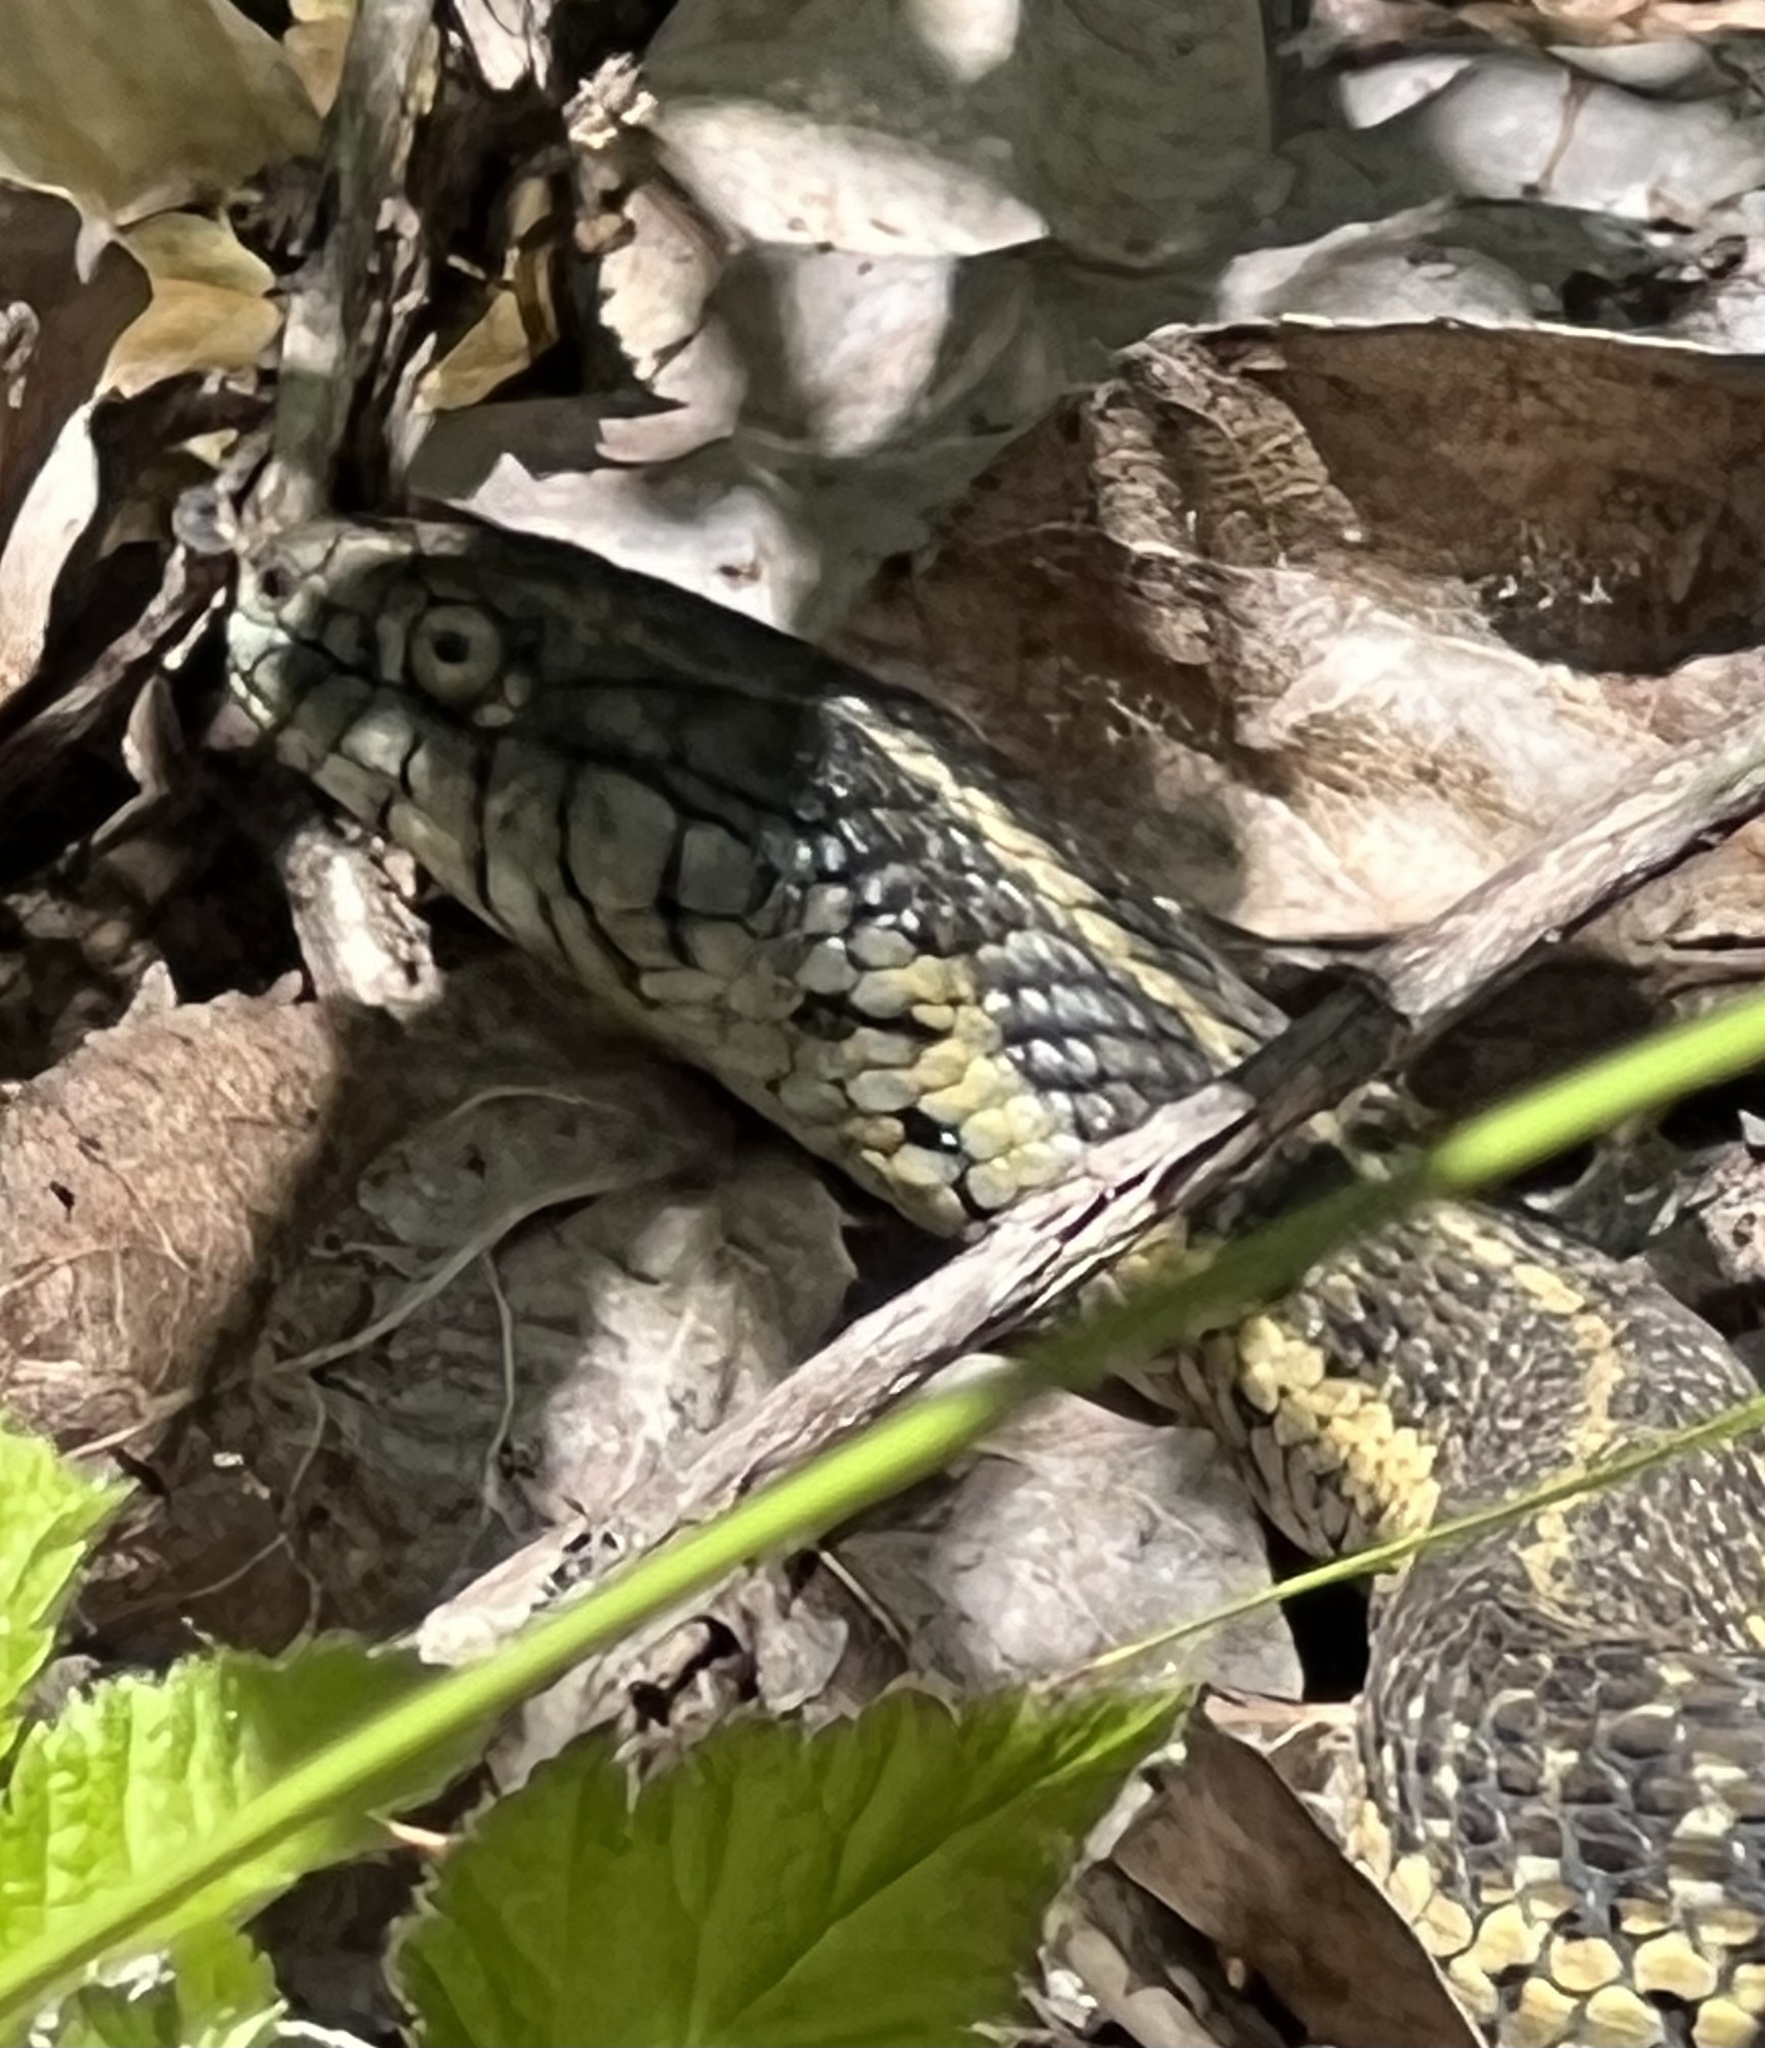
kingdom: Animalia
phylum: Chordata
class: Squamata
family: Colubridae
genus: Thamnophis
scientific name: Thamnophis atratus
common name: Pacific coast aquatic garter snake
